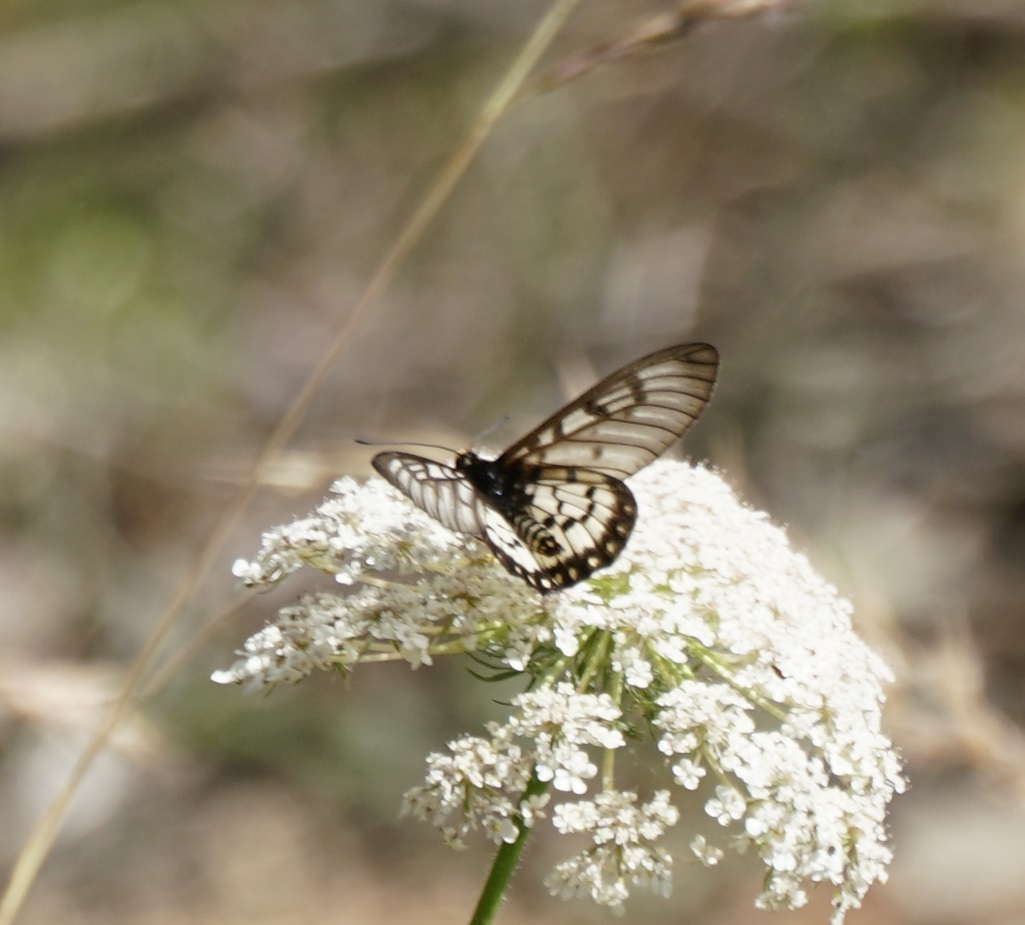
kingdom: Animalia
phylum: Arthropoda
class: Insecta
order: Lepidoptera
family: Nymphalidae
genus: Acraea
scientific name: Acraea andromacha
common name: Glasswing
